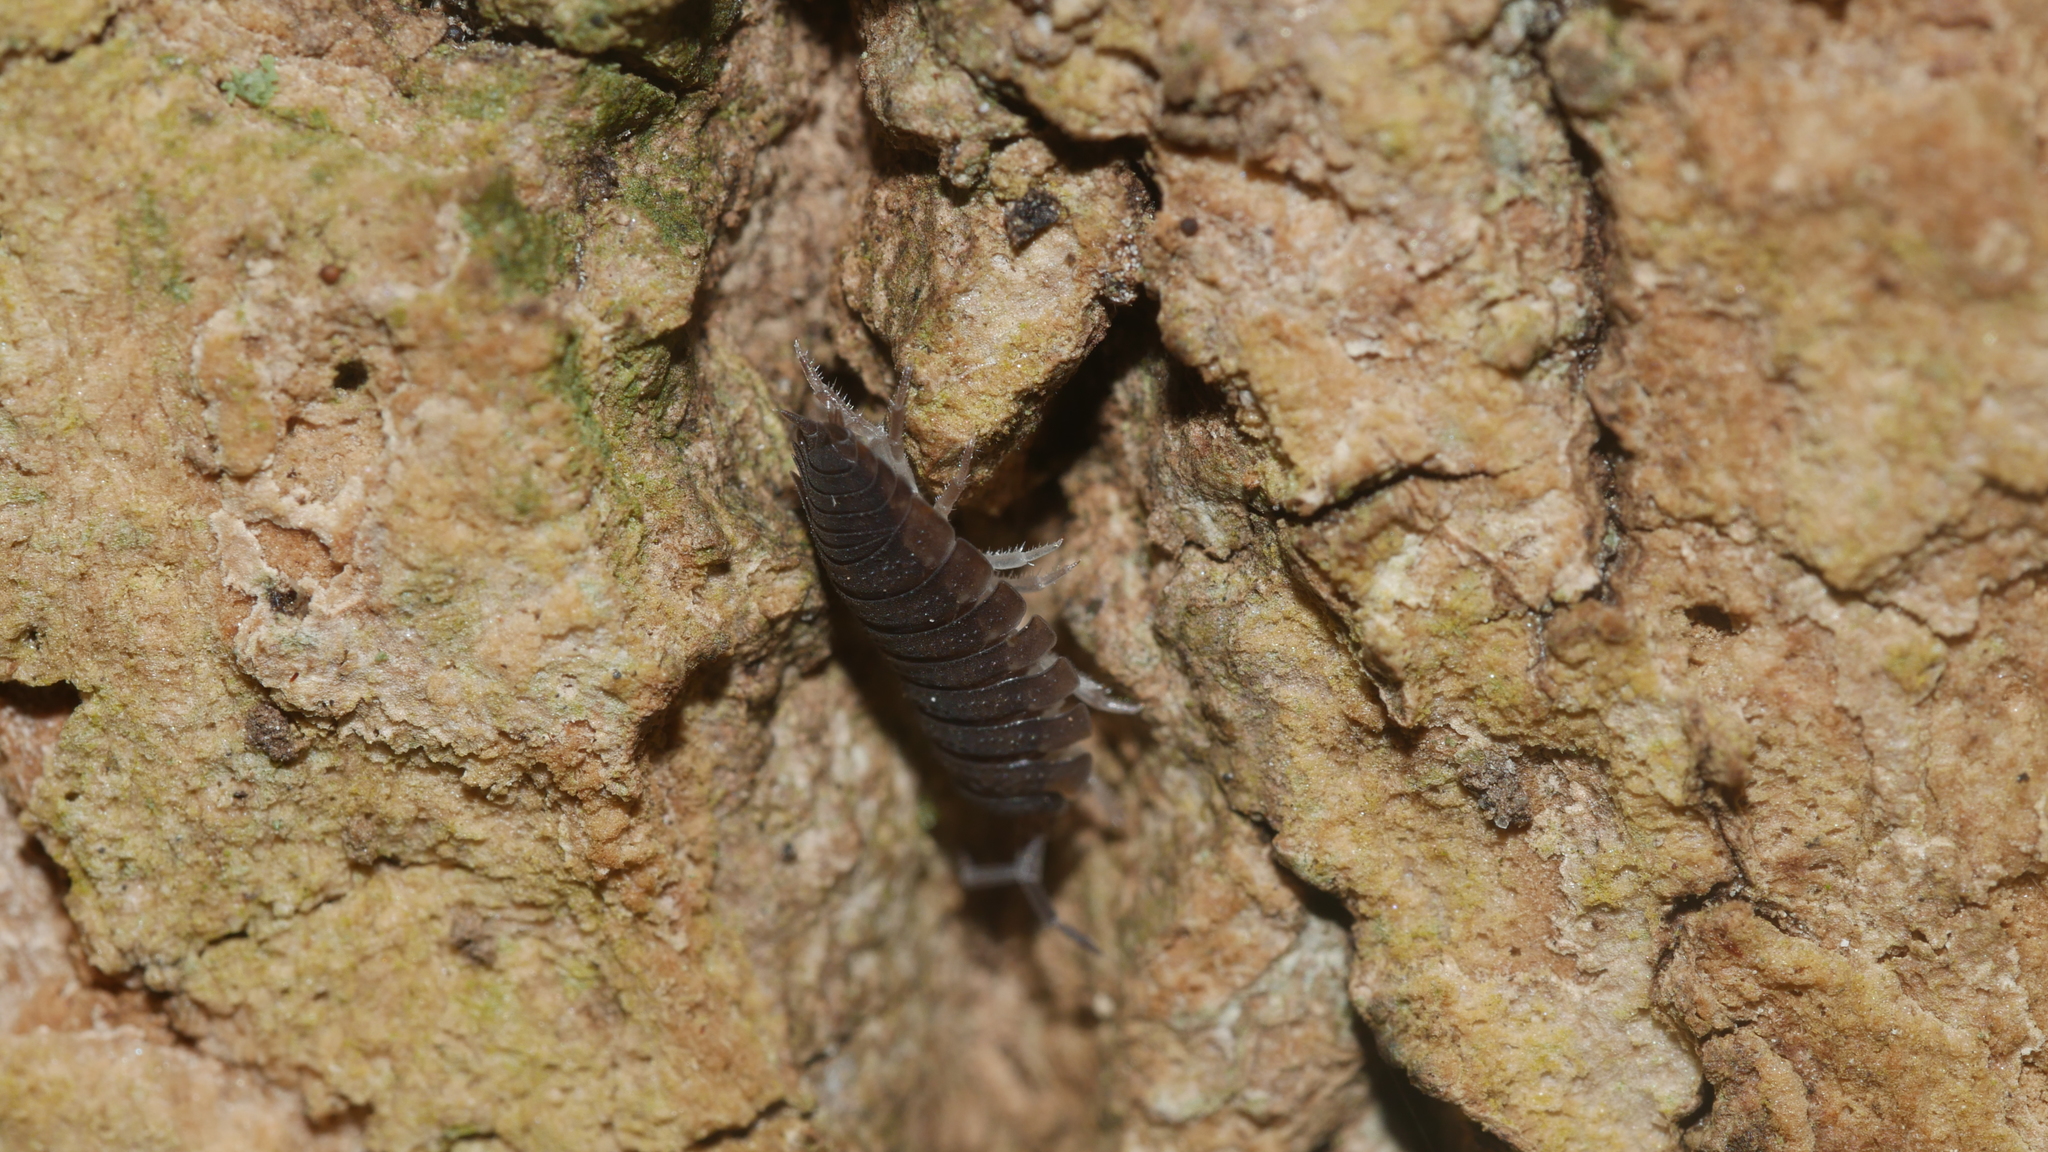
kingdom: Animalia
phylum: Arthropoda
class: Malacostraca
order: Isopoda
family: Porcellionidae
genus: Porcellio
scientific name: Porcellio scaber
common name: Common rough woodlouse
